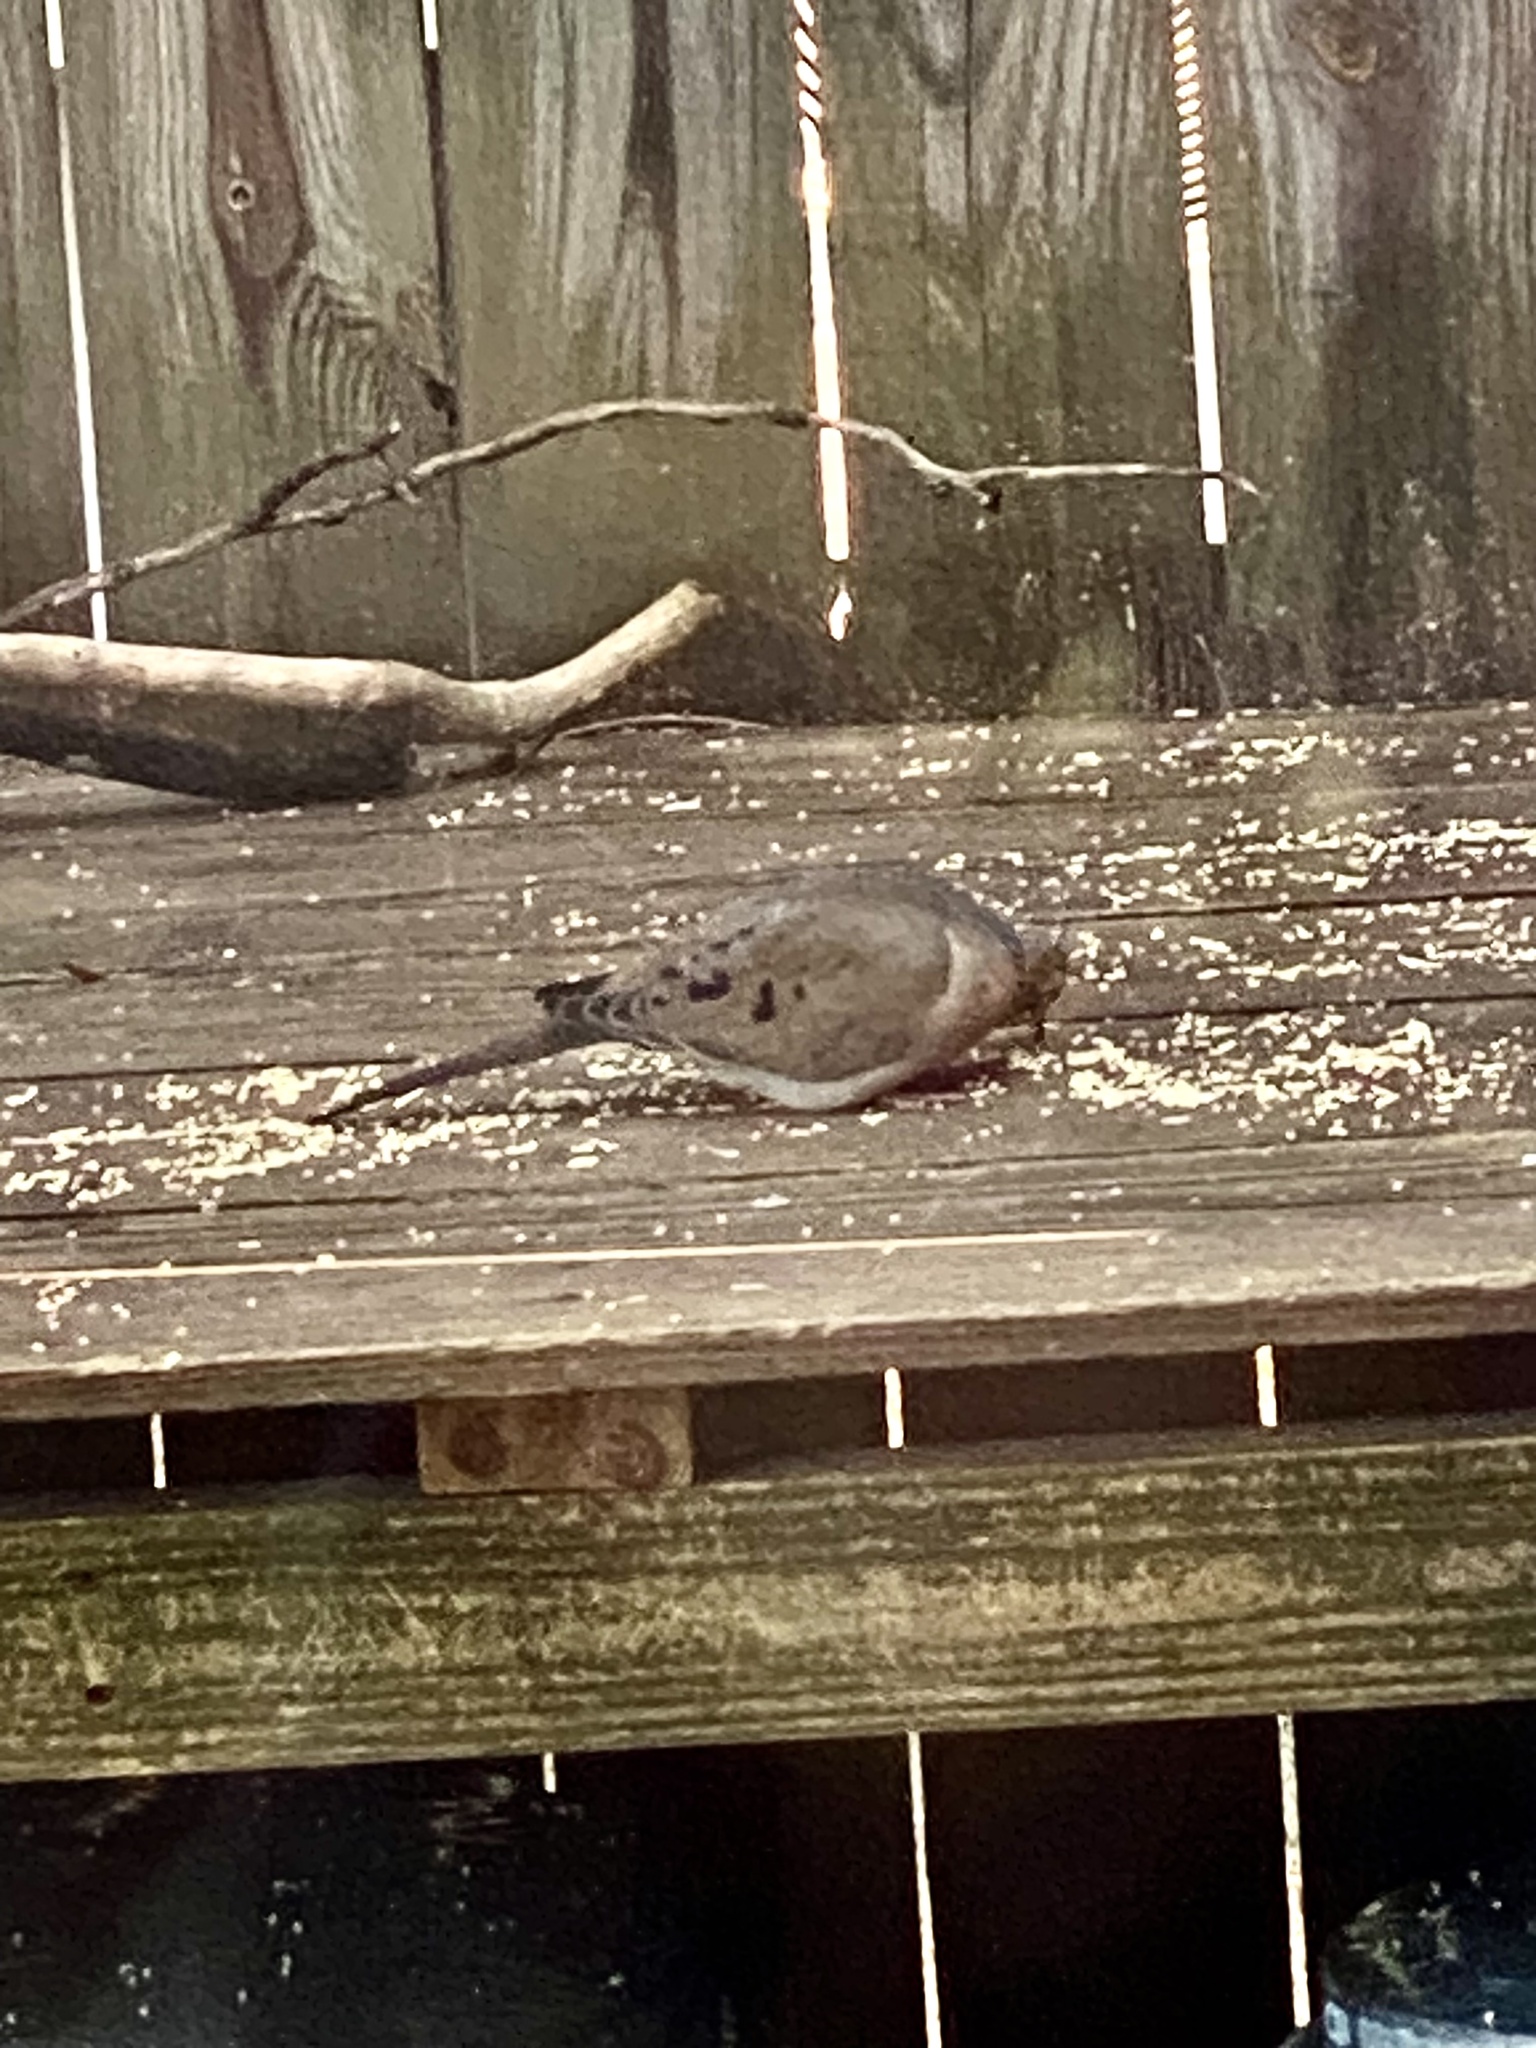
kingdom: Animalia
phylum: Chordata
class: Aves
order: Columbiformes
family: Columbidae
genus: Zenaida
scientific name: Zenaida macroura
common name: Mourning dove
